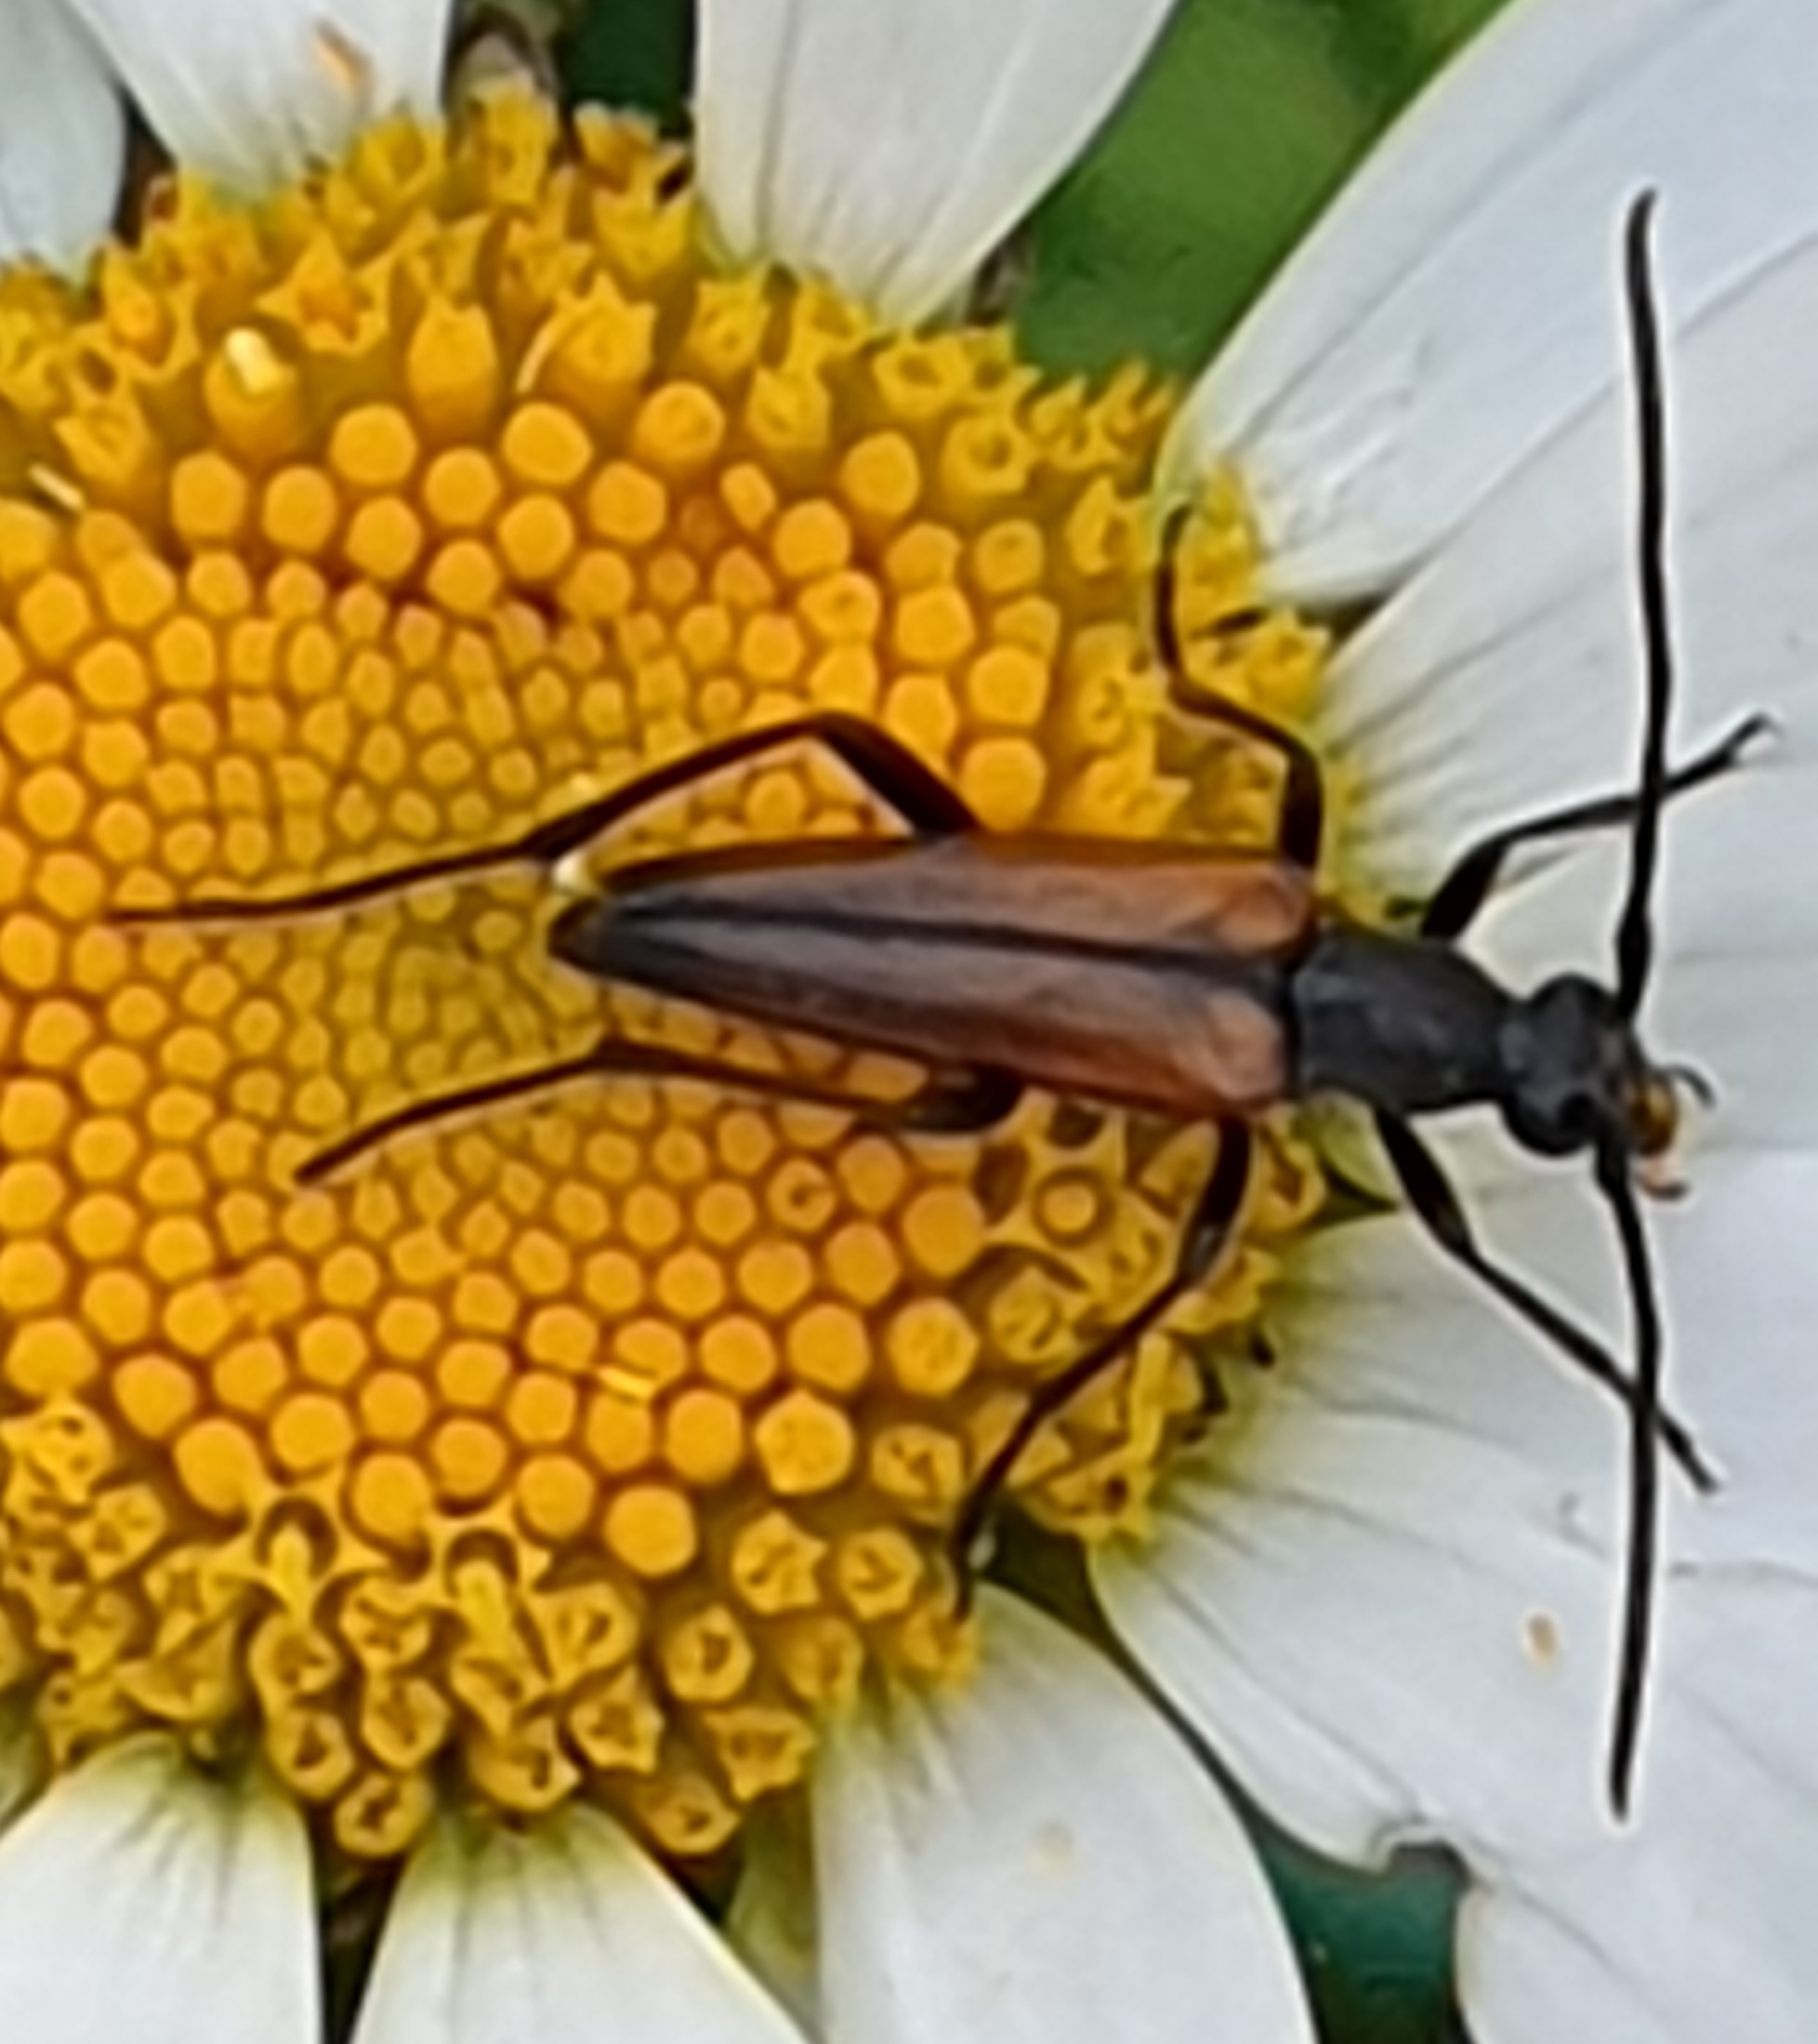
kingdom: Animalia
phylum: Arthropoda
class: Insecta
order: Coleoptera
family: Cerambycidae
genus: Stenurella
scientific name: Stenurella melanura
